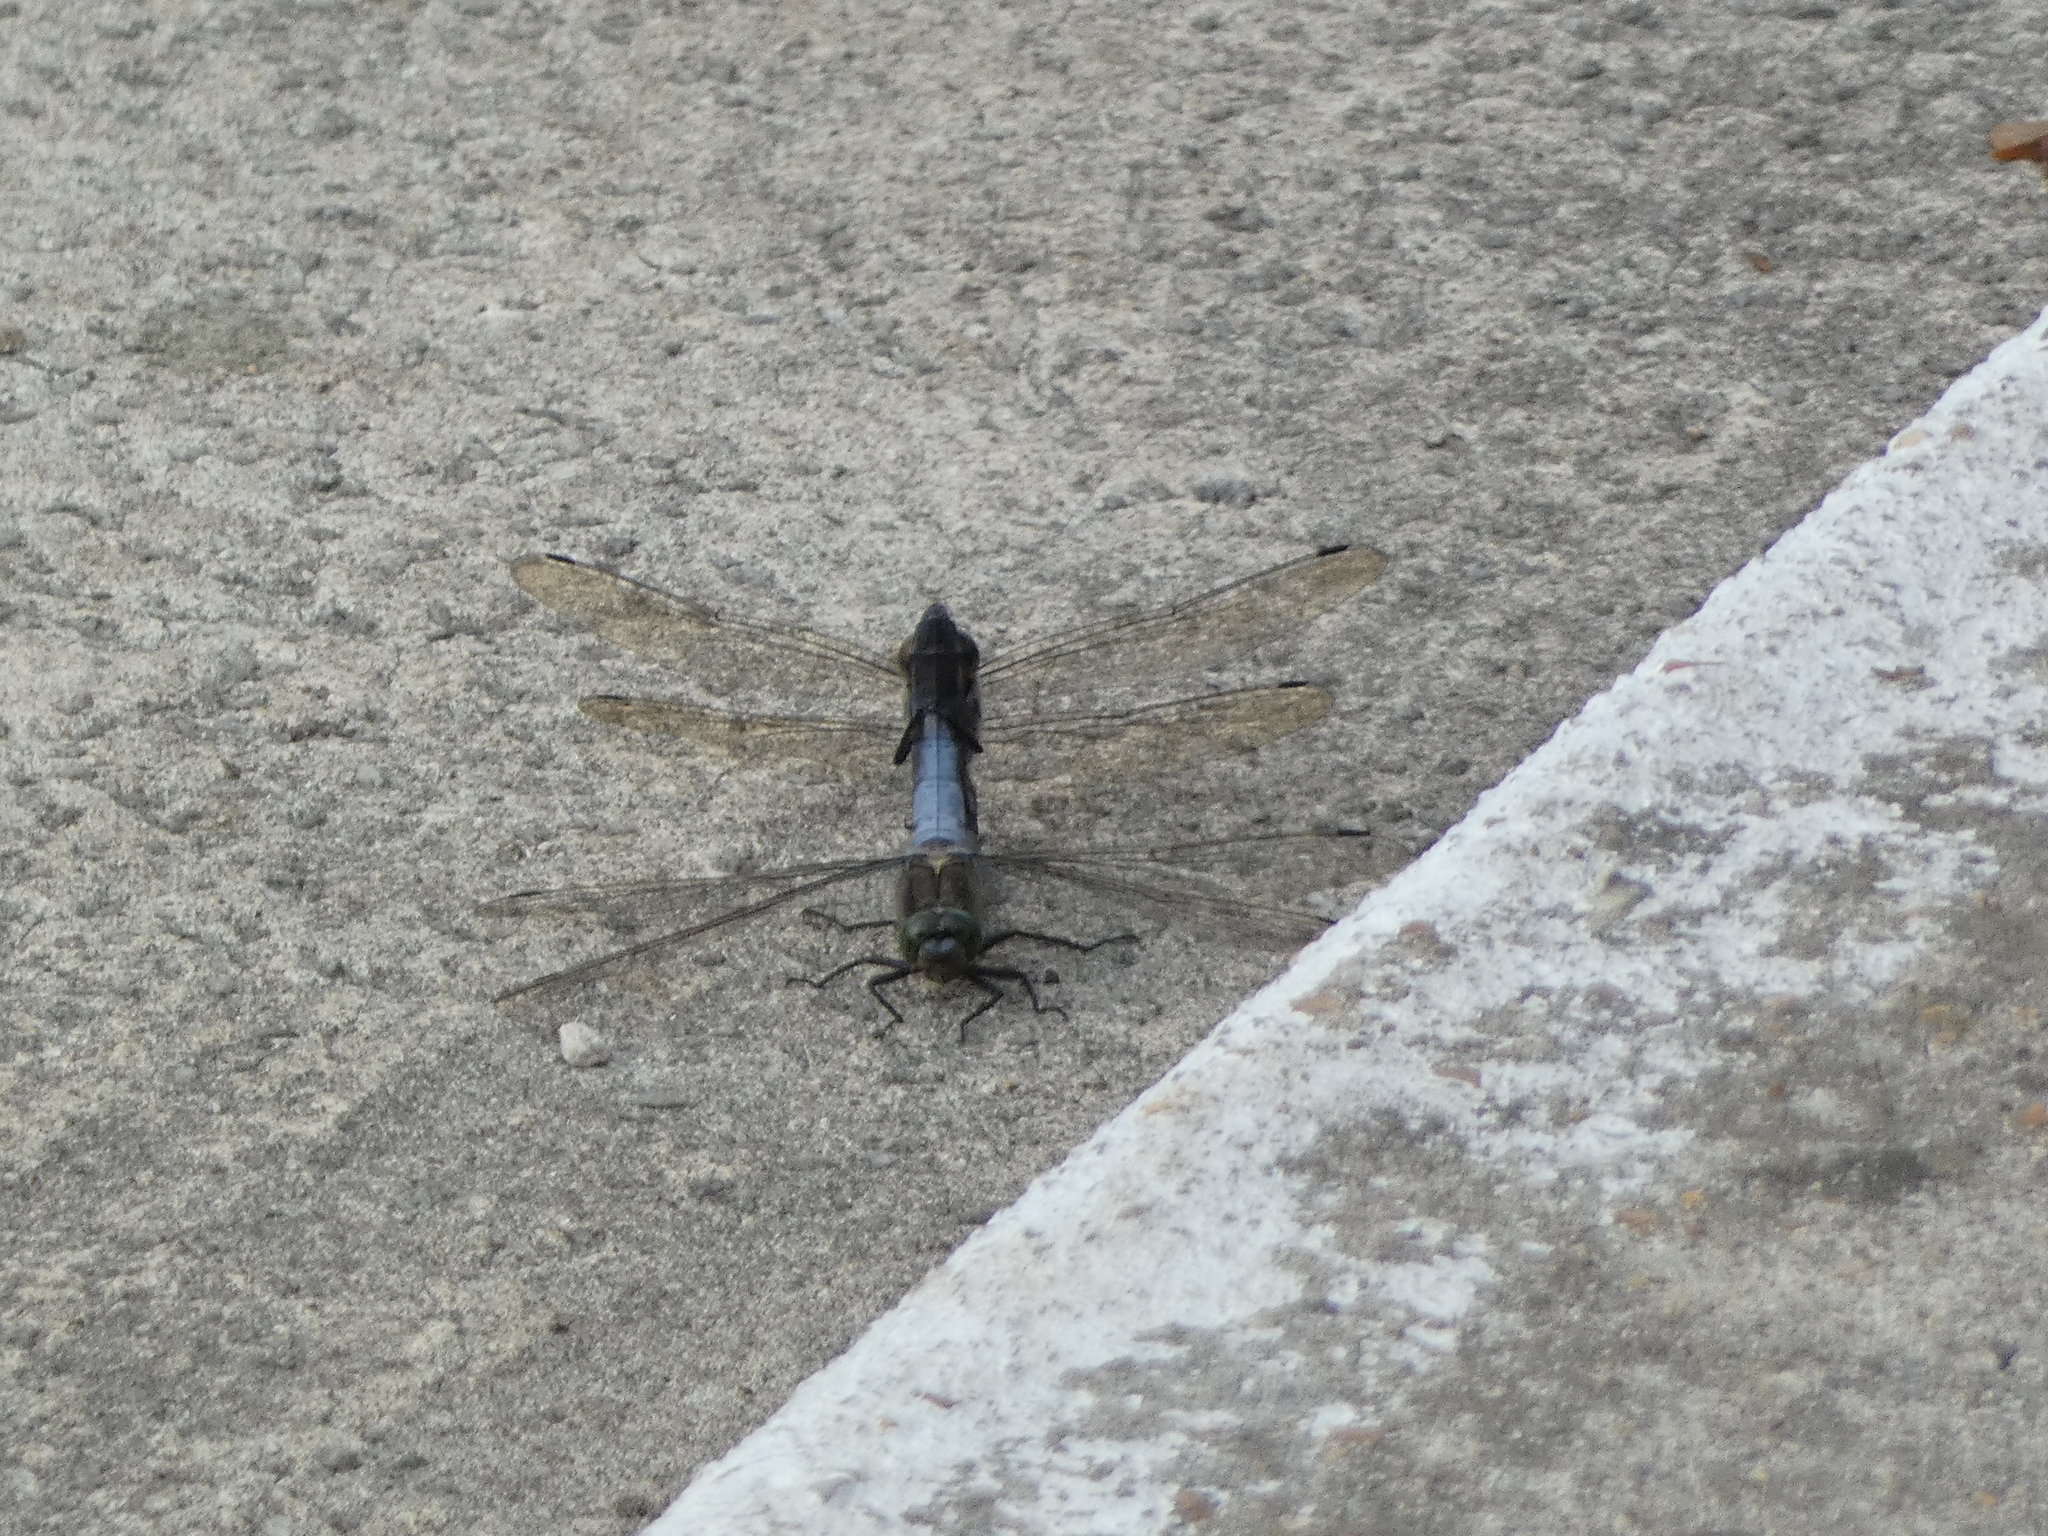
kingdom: Animalia
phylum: Arthropoda
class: Insecta
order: Odonata
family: Libellulidae
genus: Orthetrum
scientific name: Orthetrum cancellatum
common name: Black-tailed skimmer
